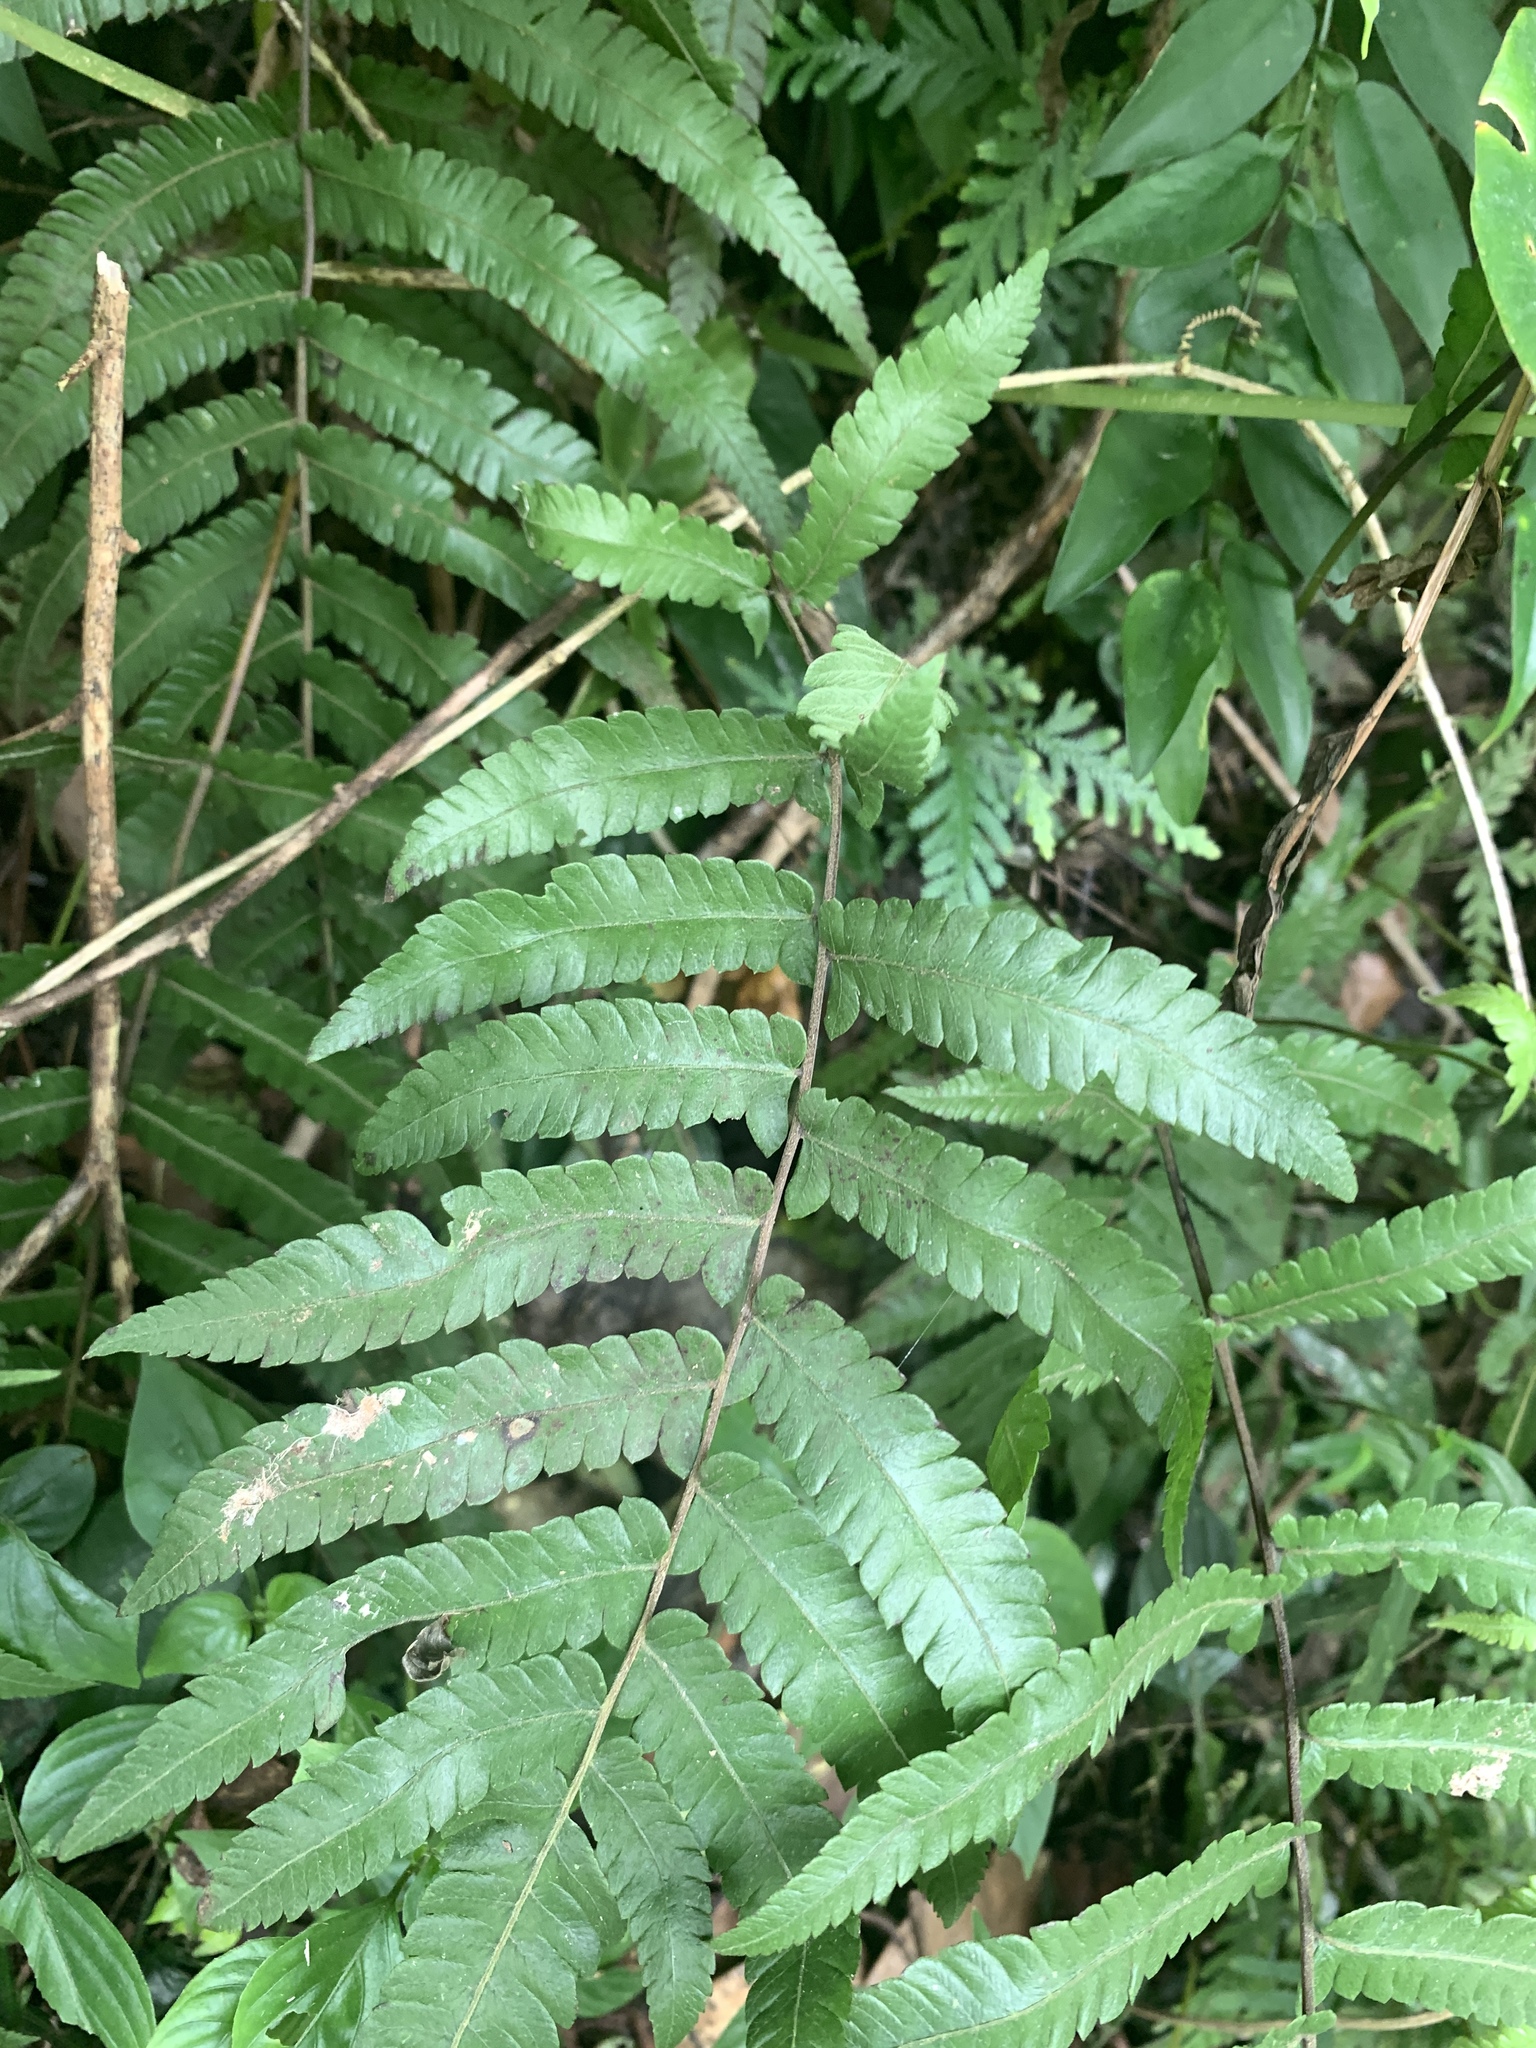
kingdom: Plantae
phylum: Tracheophyta
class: Polypodiopsida
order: Polypodiales
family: Thelypteridaceae
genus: Christella
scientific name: Christella acuminata
